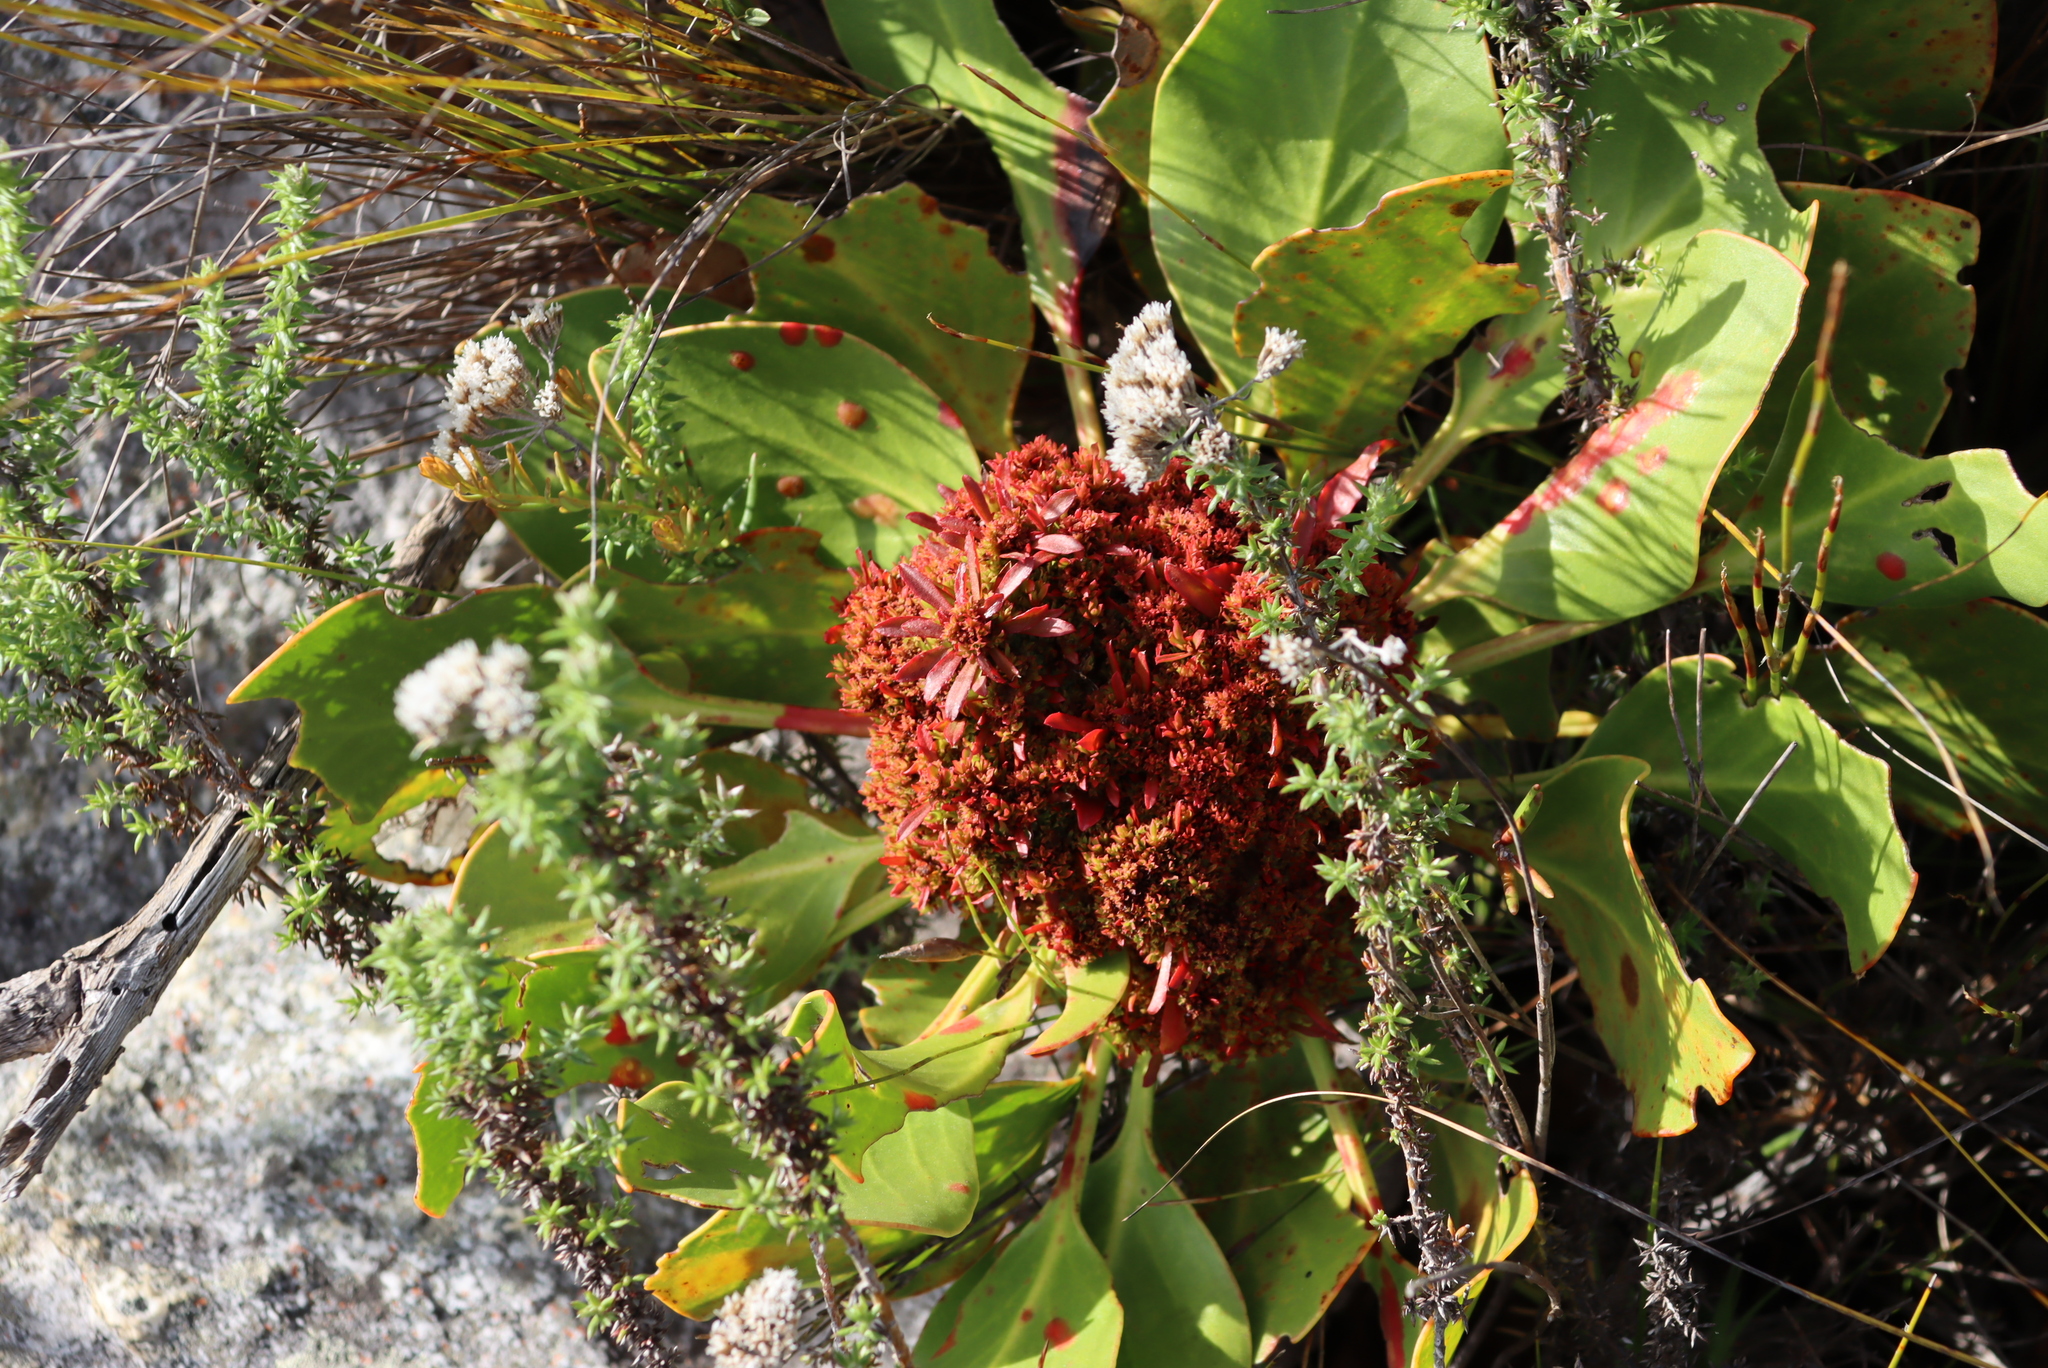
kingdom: Bacteria
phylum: Firmicutes
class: Bacilli
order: Acholeplasmatales
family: Acholeplasmataceae
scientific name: Acholeplasmataceae
